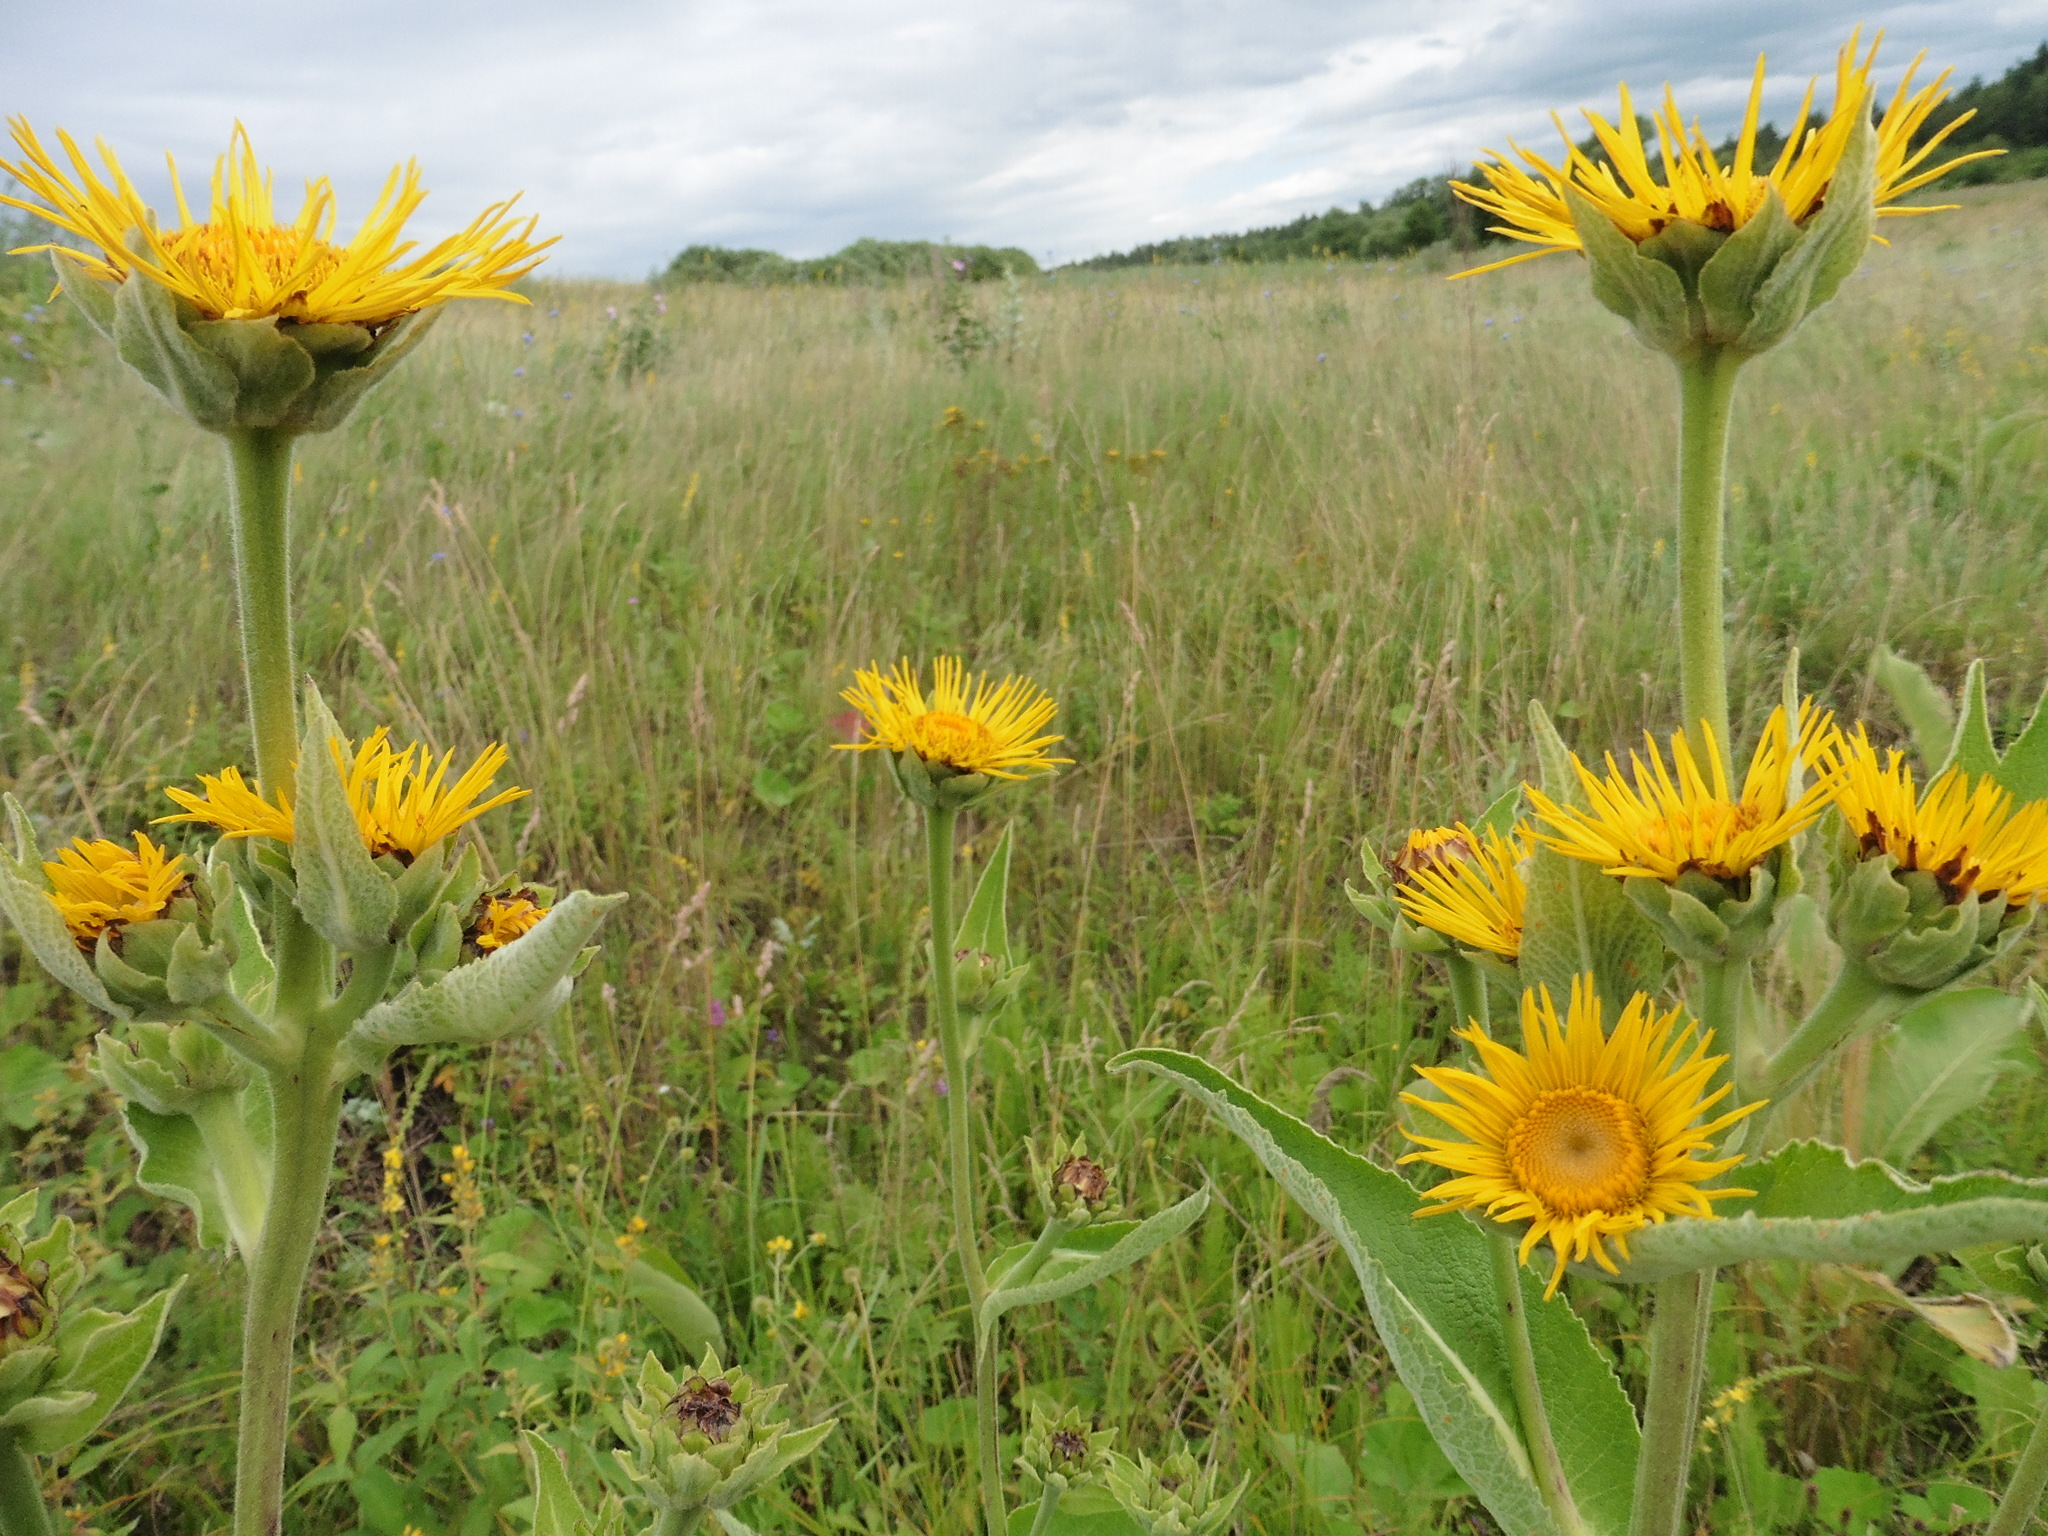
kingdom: Plantae
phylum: Tracheophyta
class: Magnoliopsida
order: Asterales
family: Asteraceae
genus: Inula
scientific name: Inula helenium
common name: Elecampane
